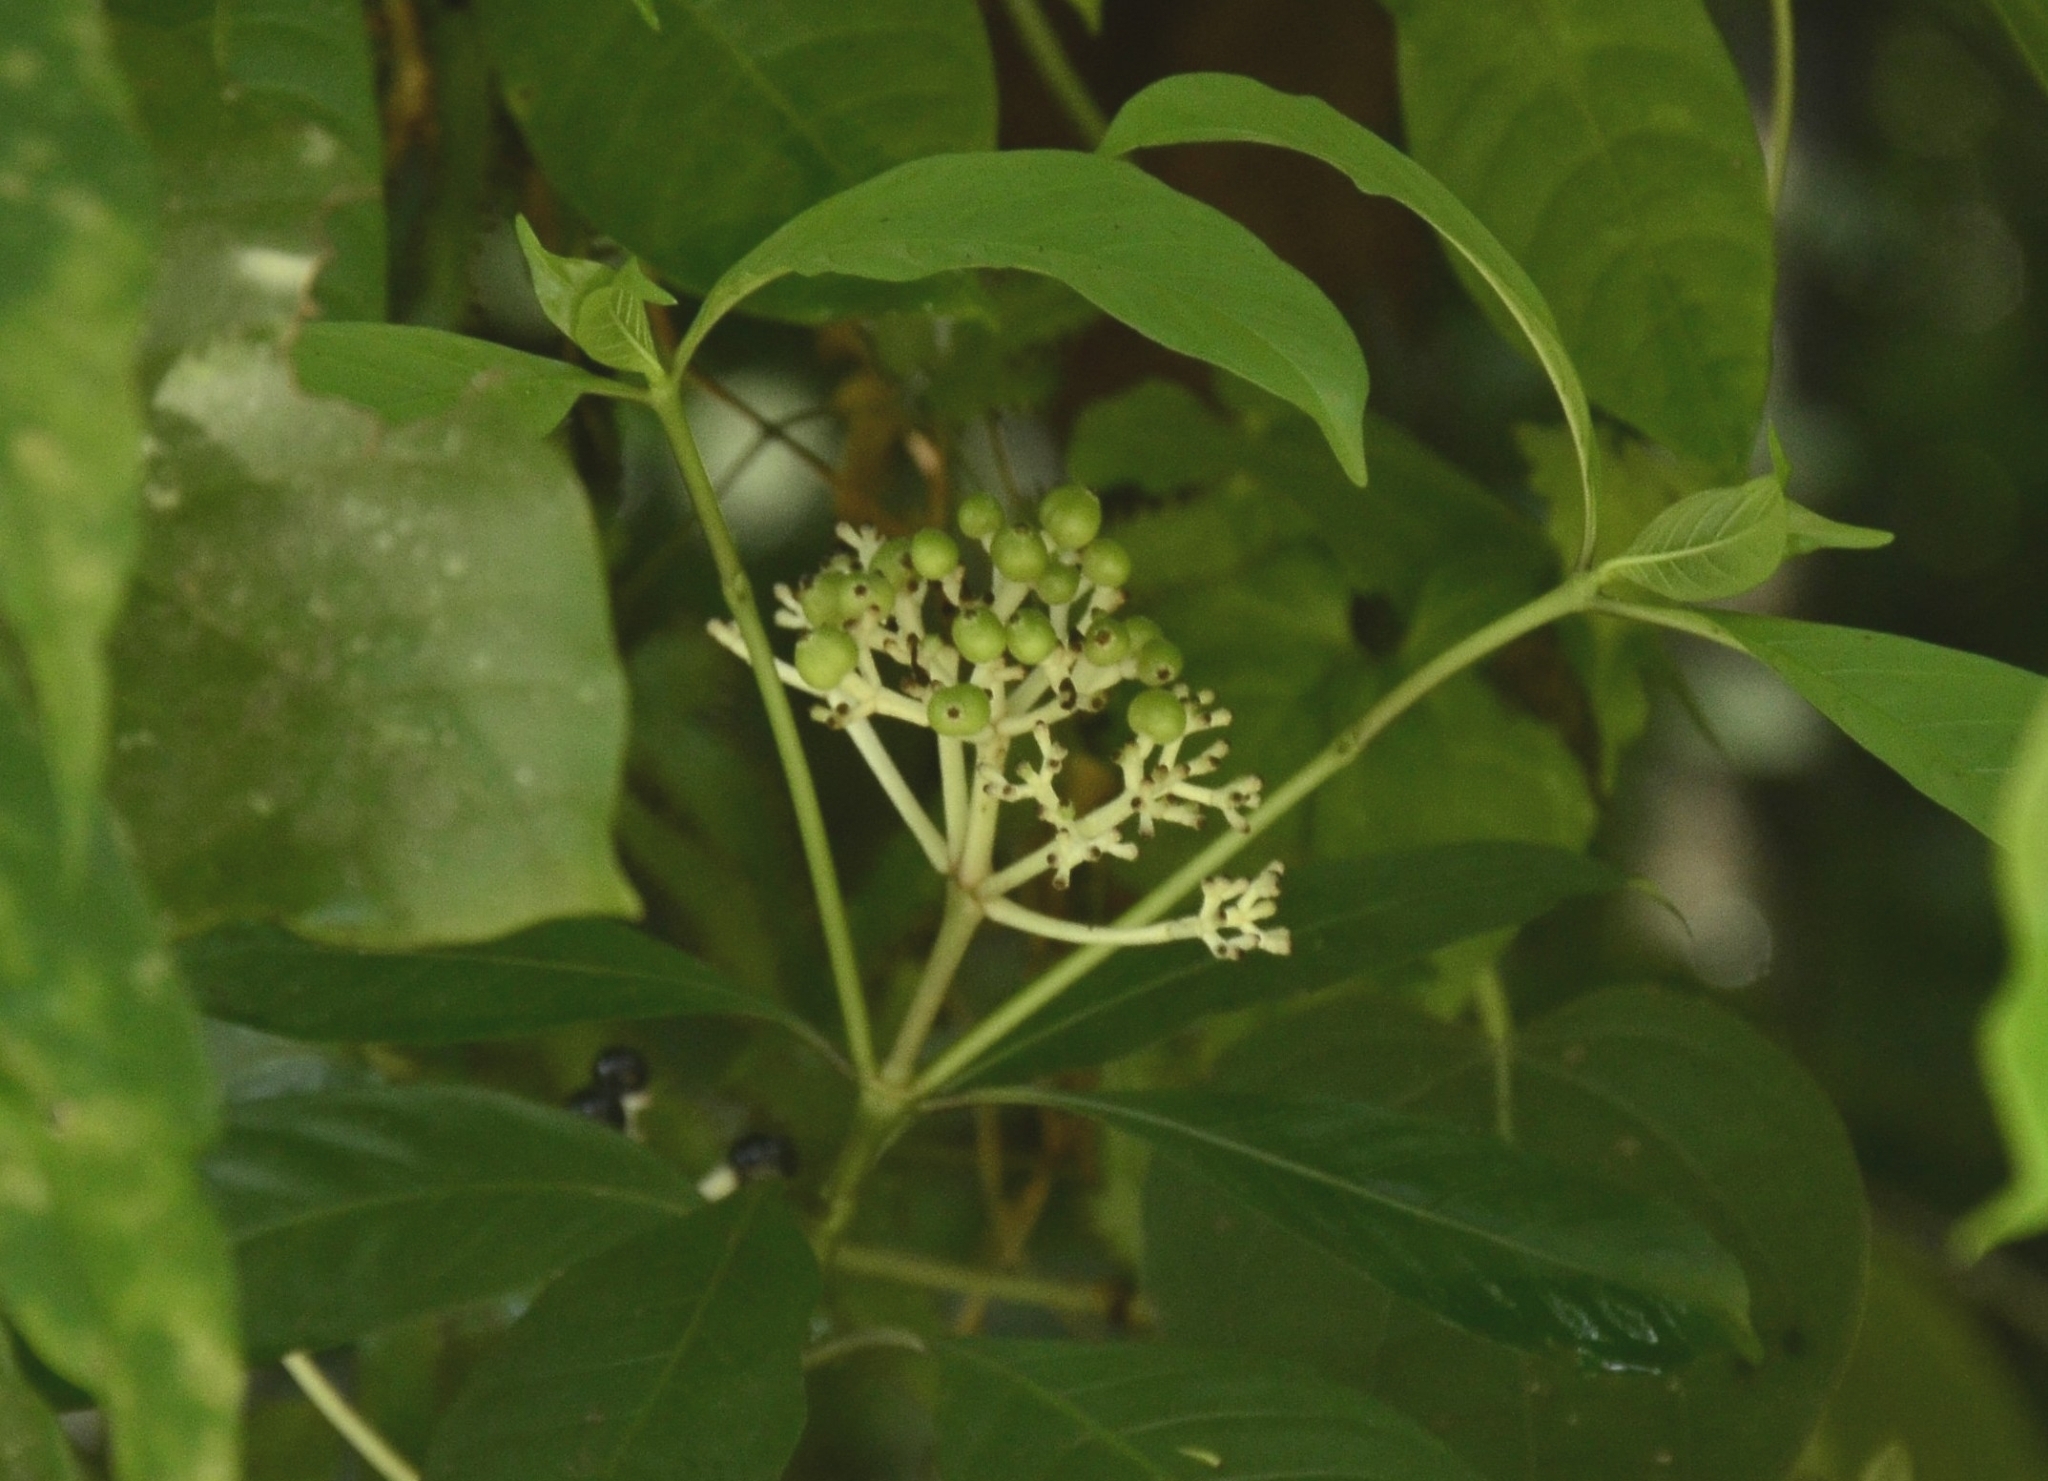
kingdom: Plantae
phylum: Tracheophyta
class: Magnoliopsida
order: Gentianales
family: Rubiaceae
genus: Chassalia
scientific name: Chassalia curviflora
